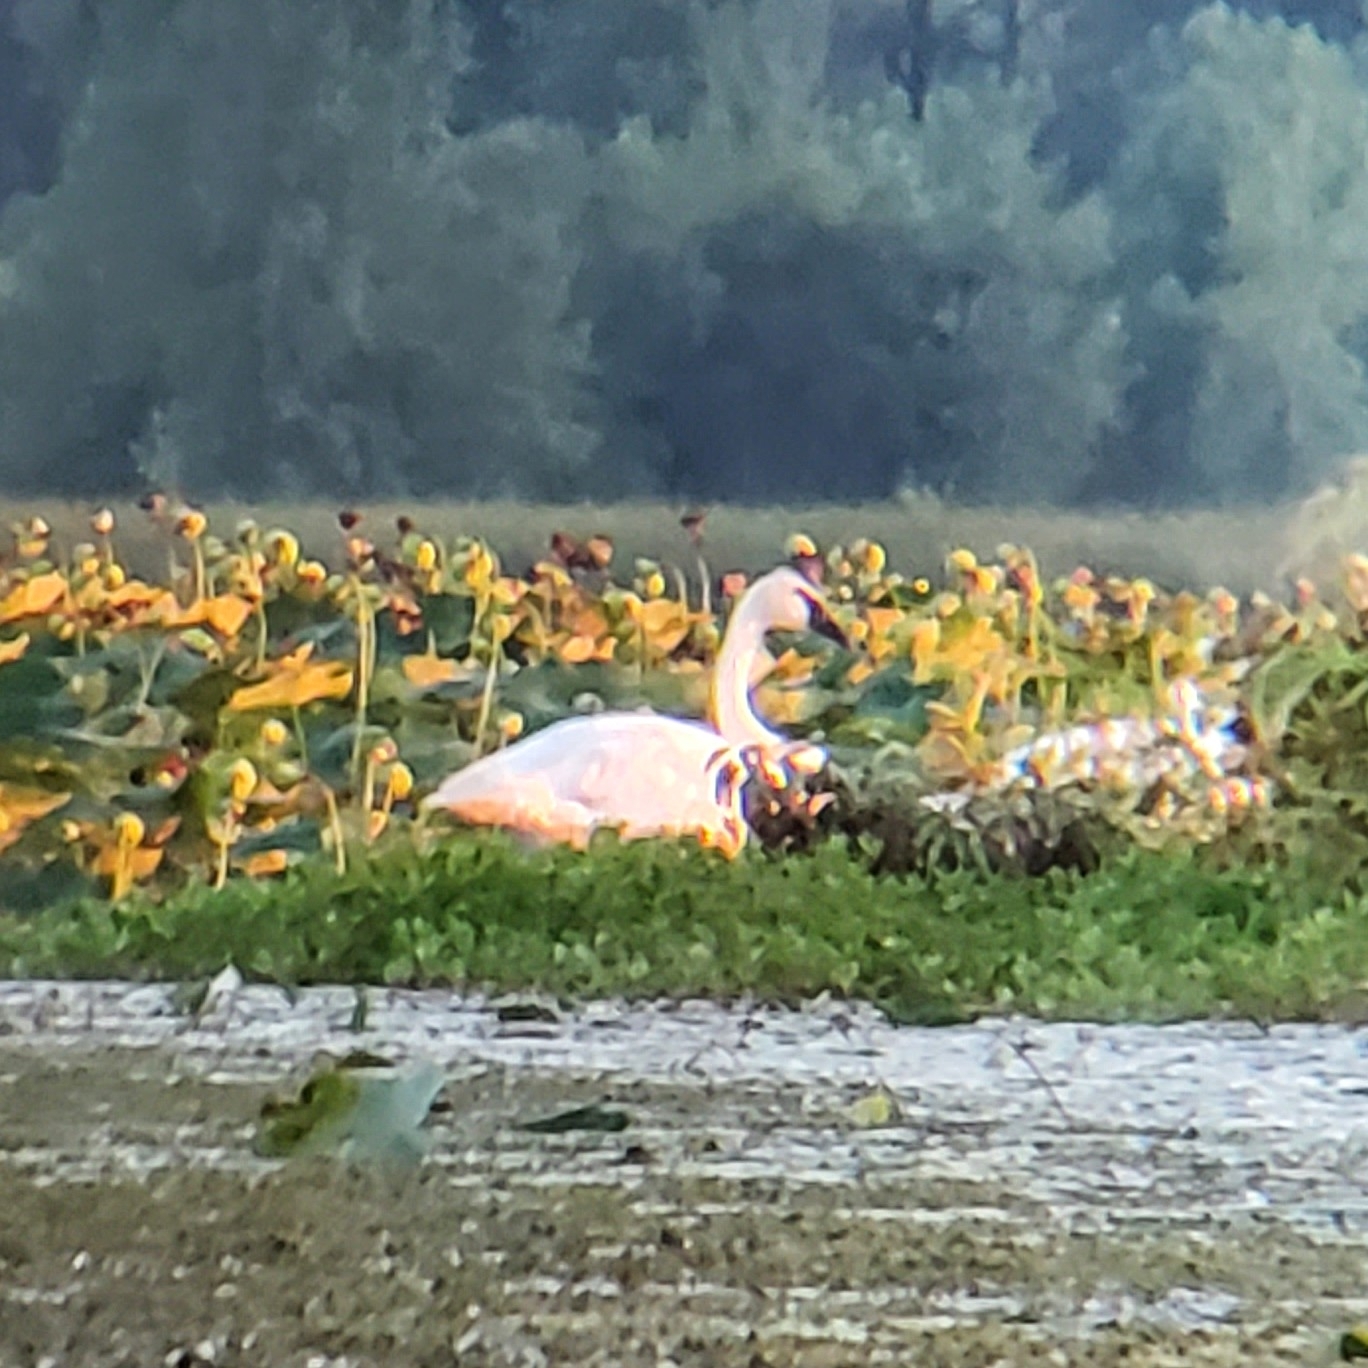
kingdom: Animalia
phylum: Chordata
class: Aves
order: Anseriformes
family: Anatidae
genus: Cygnus
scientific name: Cygnus buccinator
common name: Trumpeter swan
